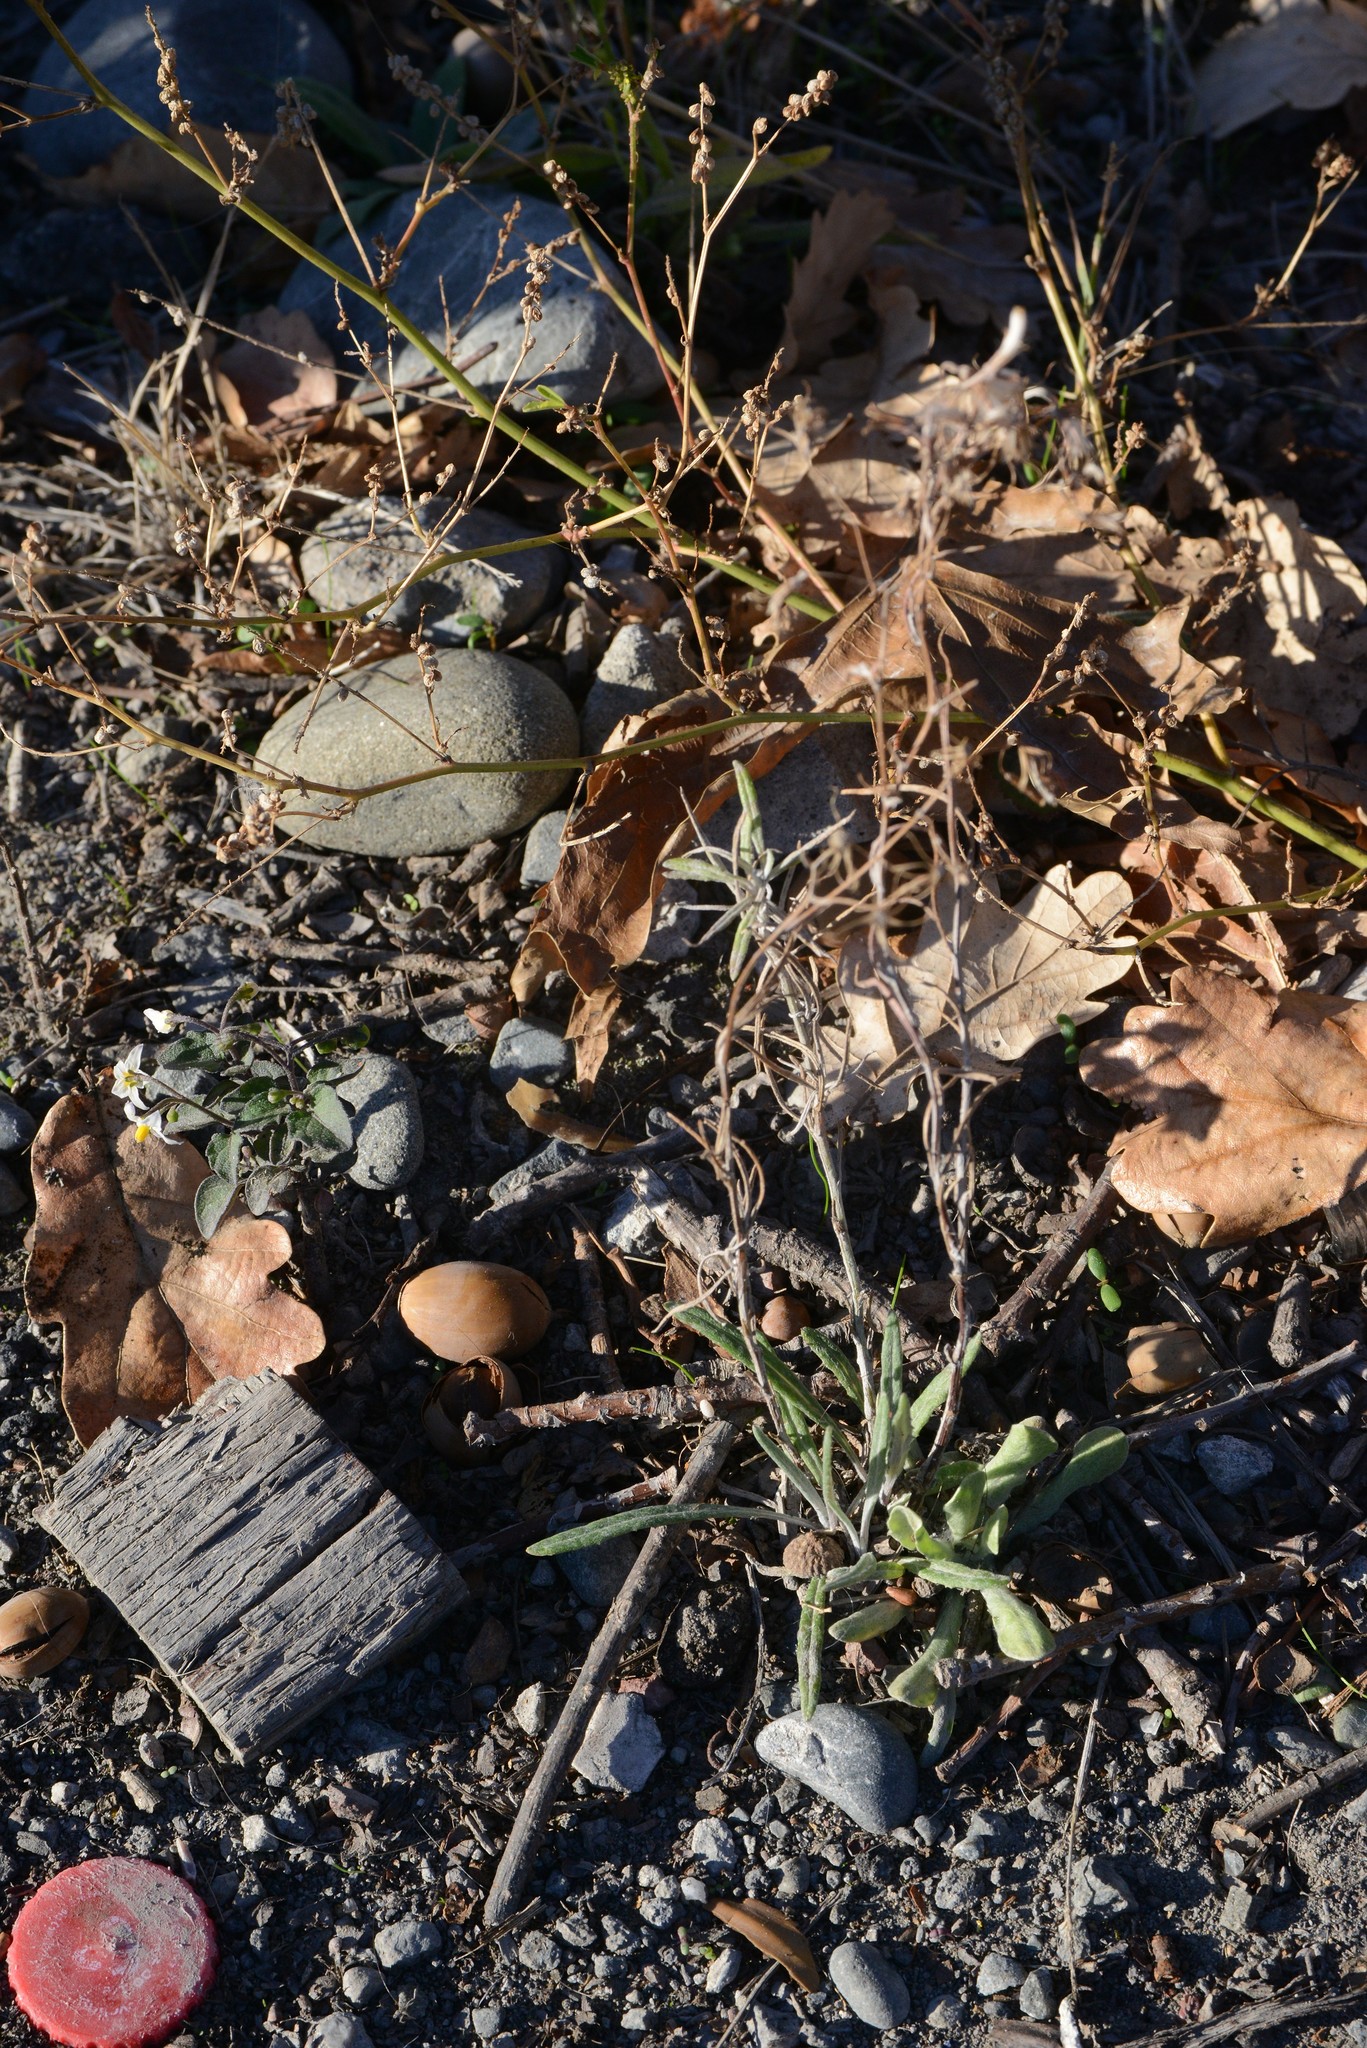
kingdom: Plantae
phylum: Tracheophyta
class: Magnoliopsida
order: Asterales
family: Asteraceae
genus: Senecio
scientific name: Senecio quadridentatus
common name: Cotton fireweed
